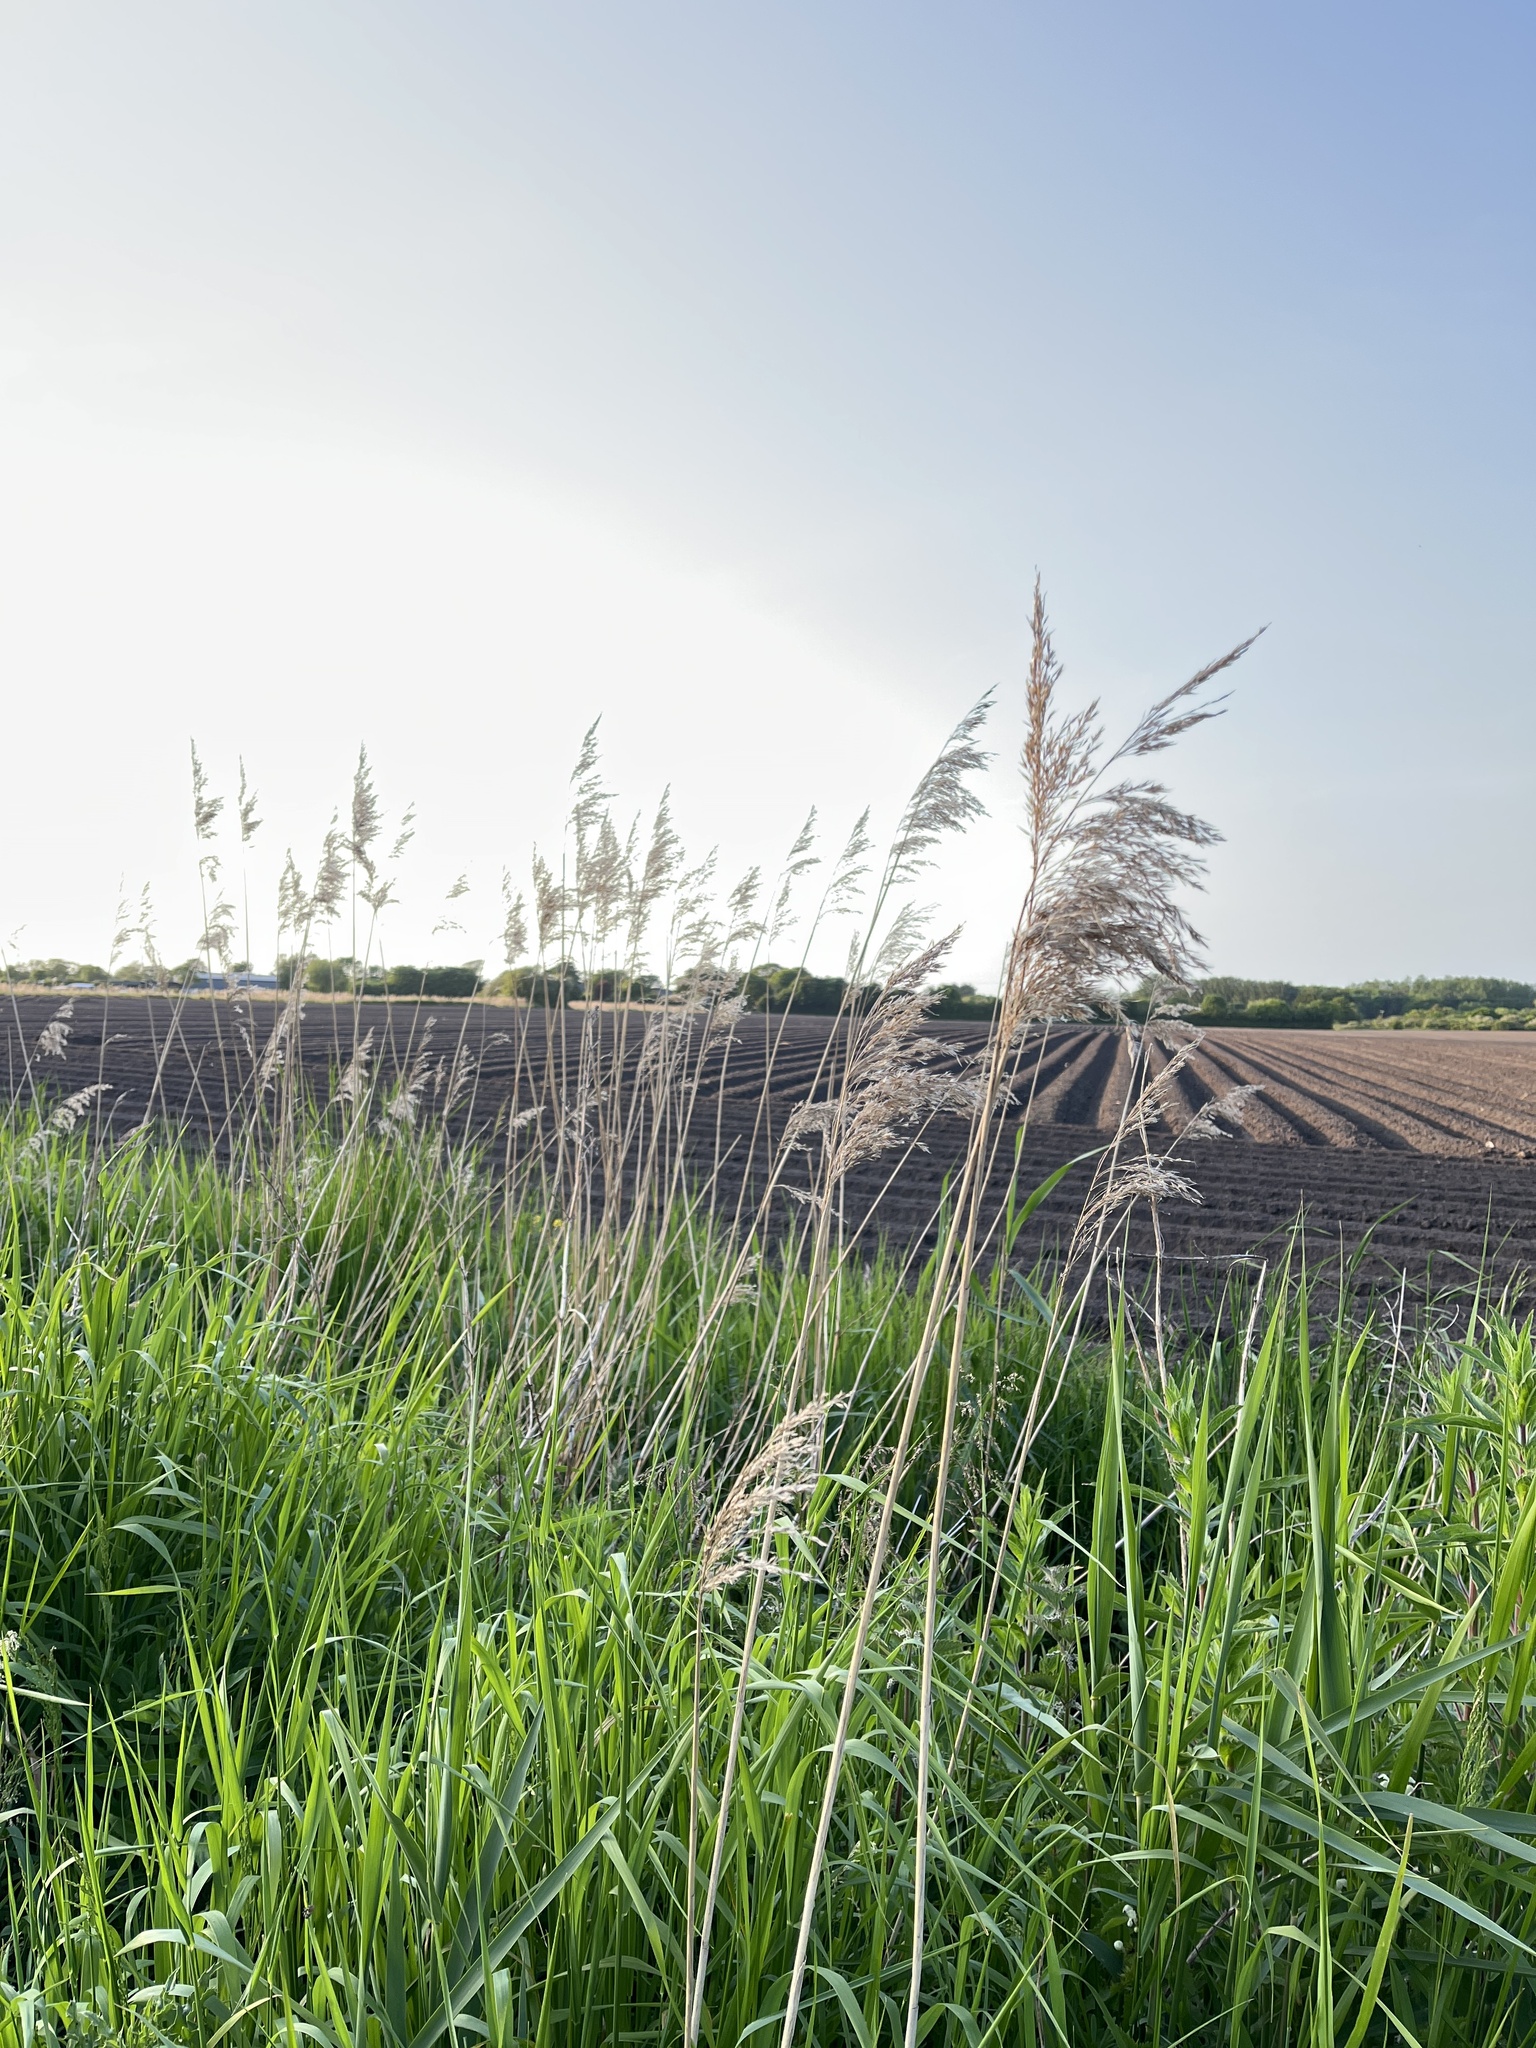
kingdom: Plantae
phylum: Tracheophyta
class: Liliopsida
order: Poales
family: Poaceae
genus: Phragmites
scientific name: Phragmites australis
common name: Common reed
